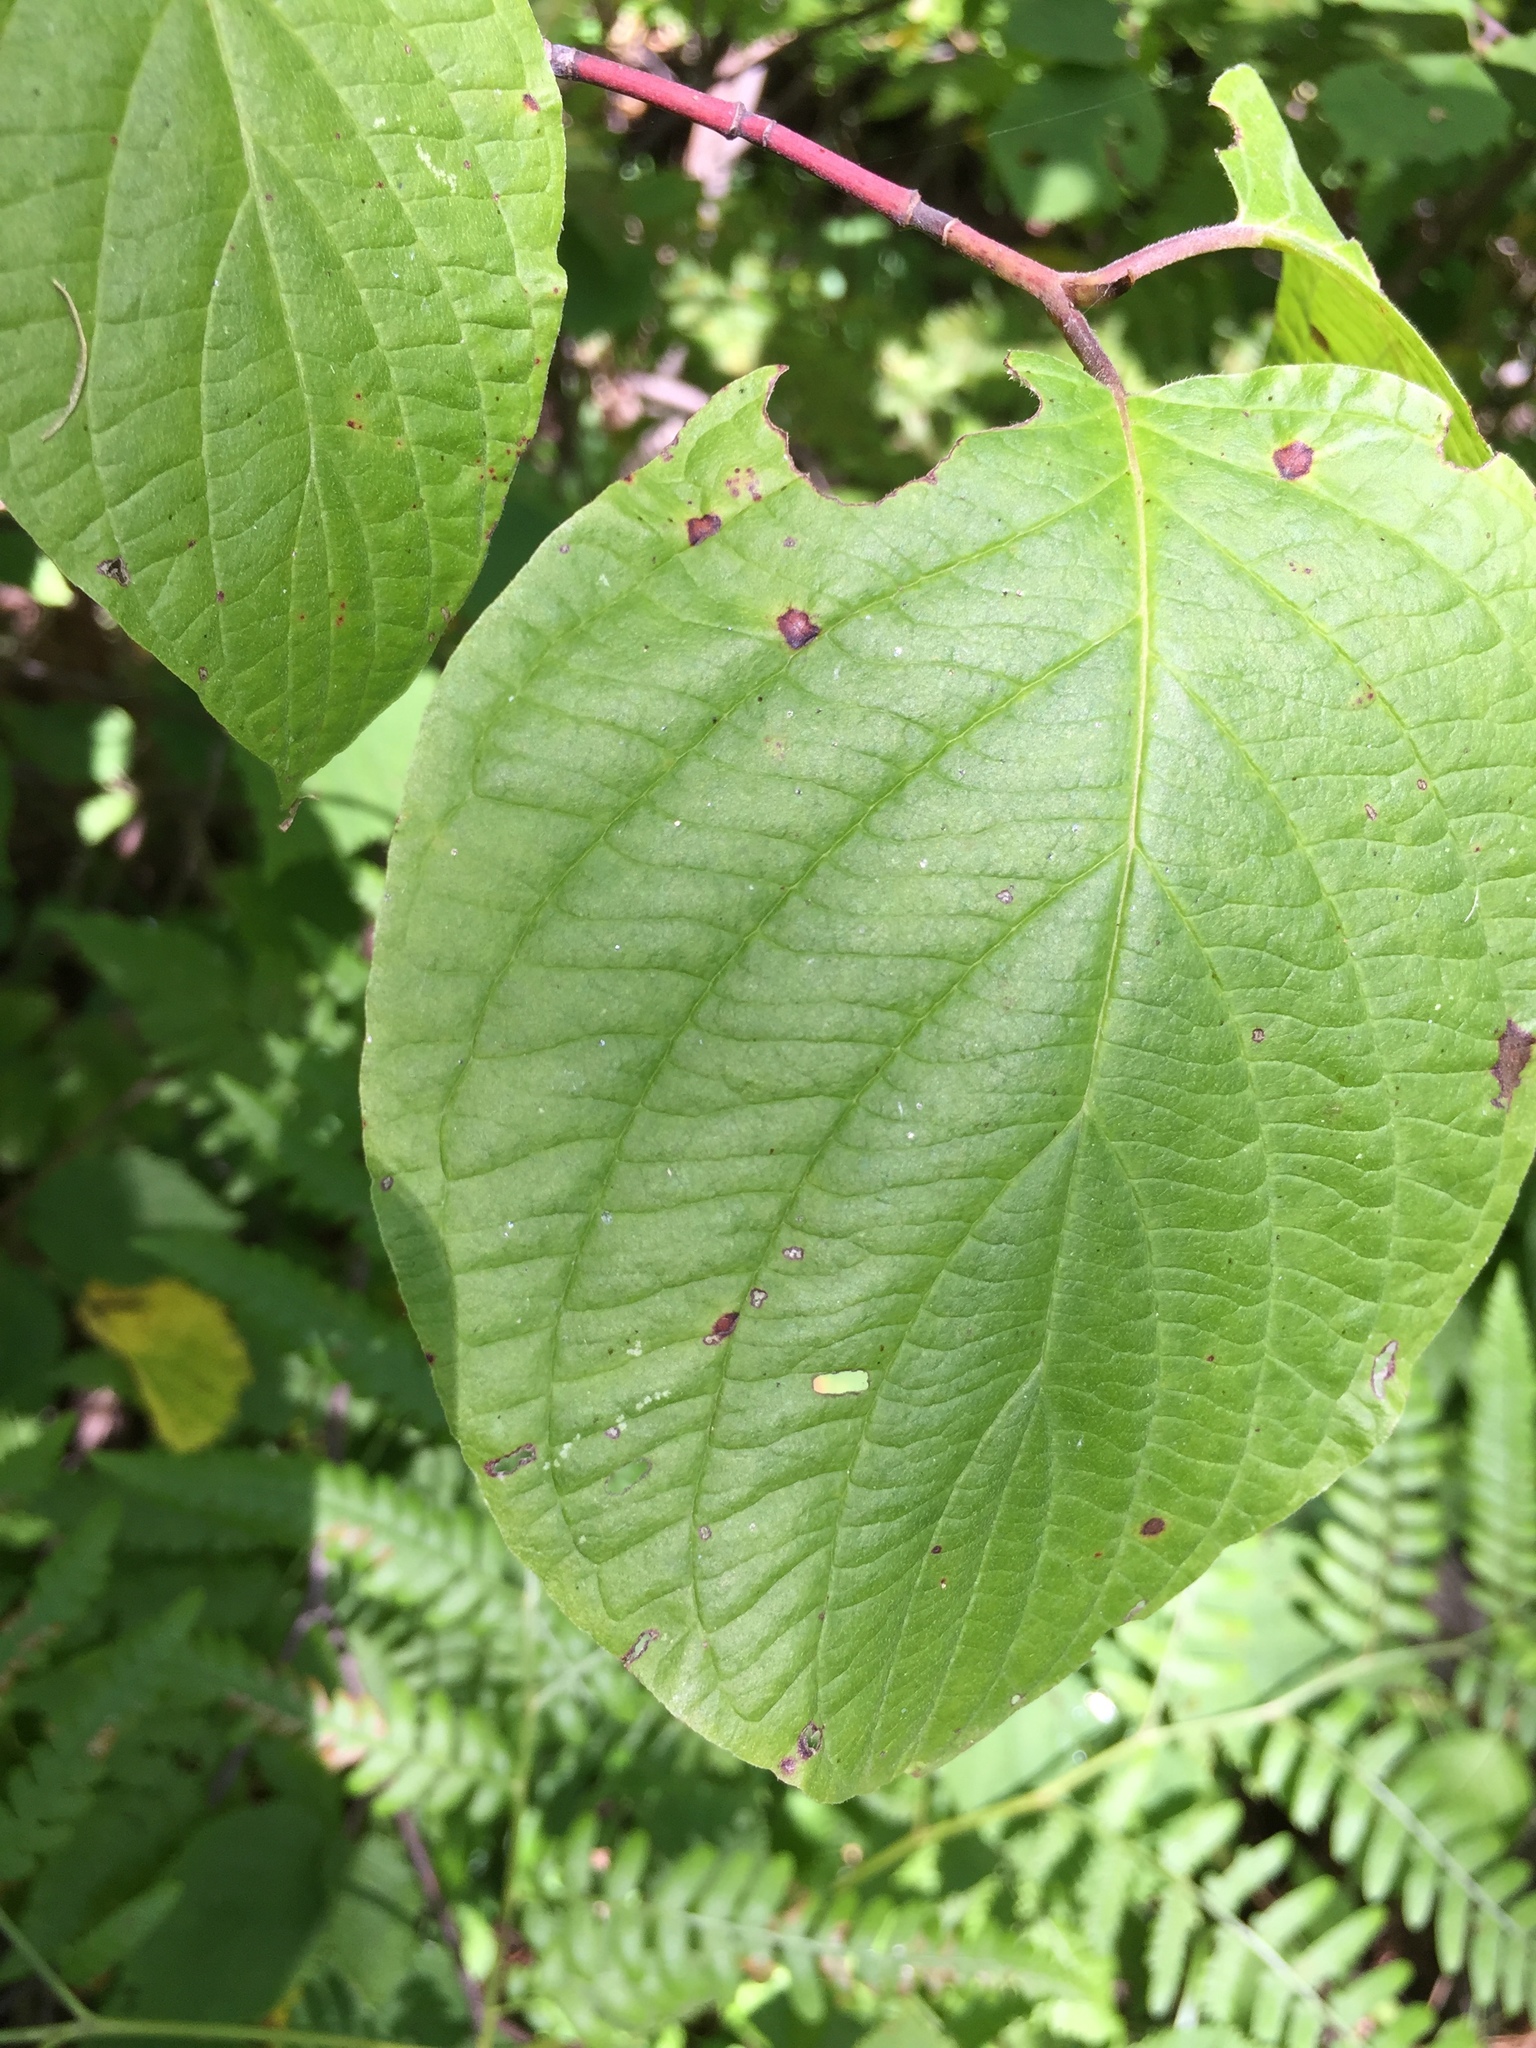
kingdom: Plantae
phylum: Tracheophyta
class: Magnoliopsida
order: Cornales
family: Cornaceae
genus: Cornus
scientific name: Cornus rugosa
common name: Round-leaf dogwood
